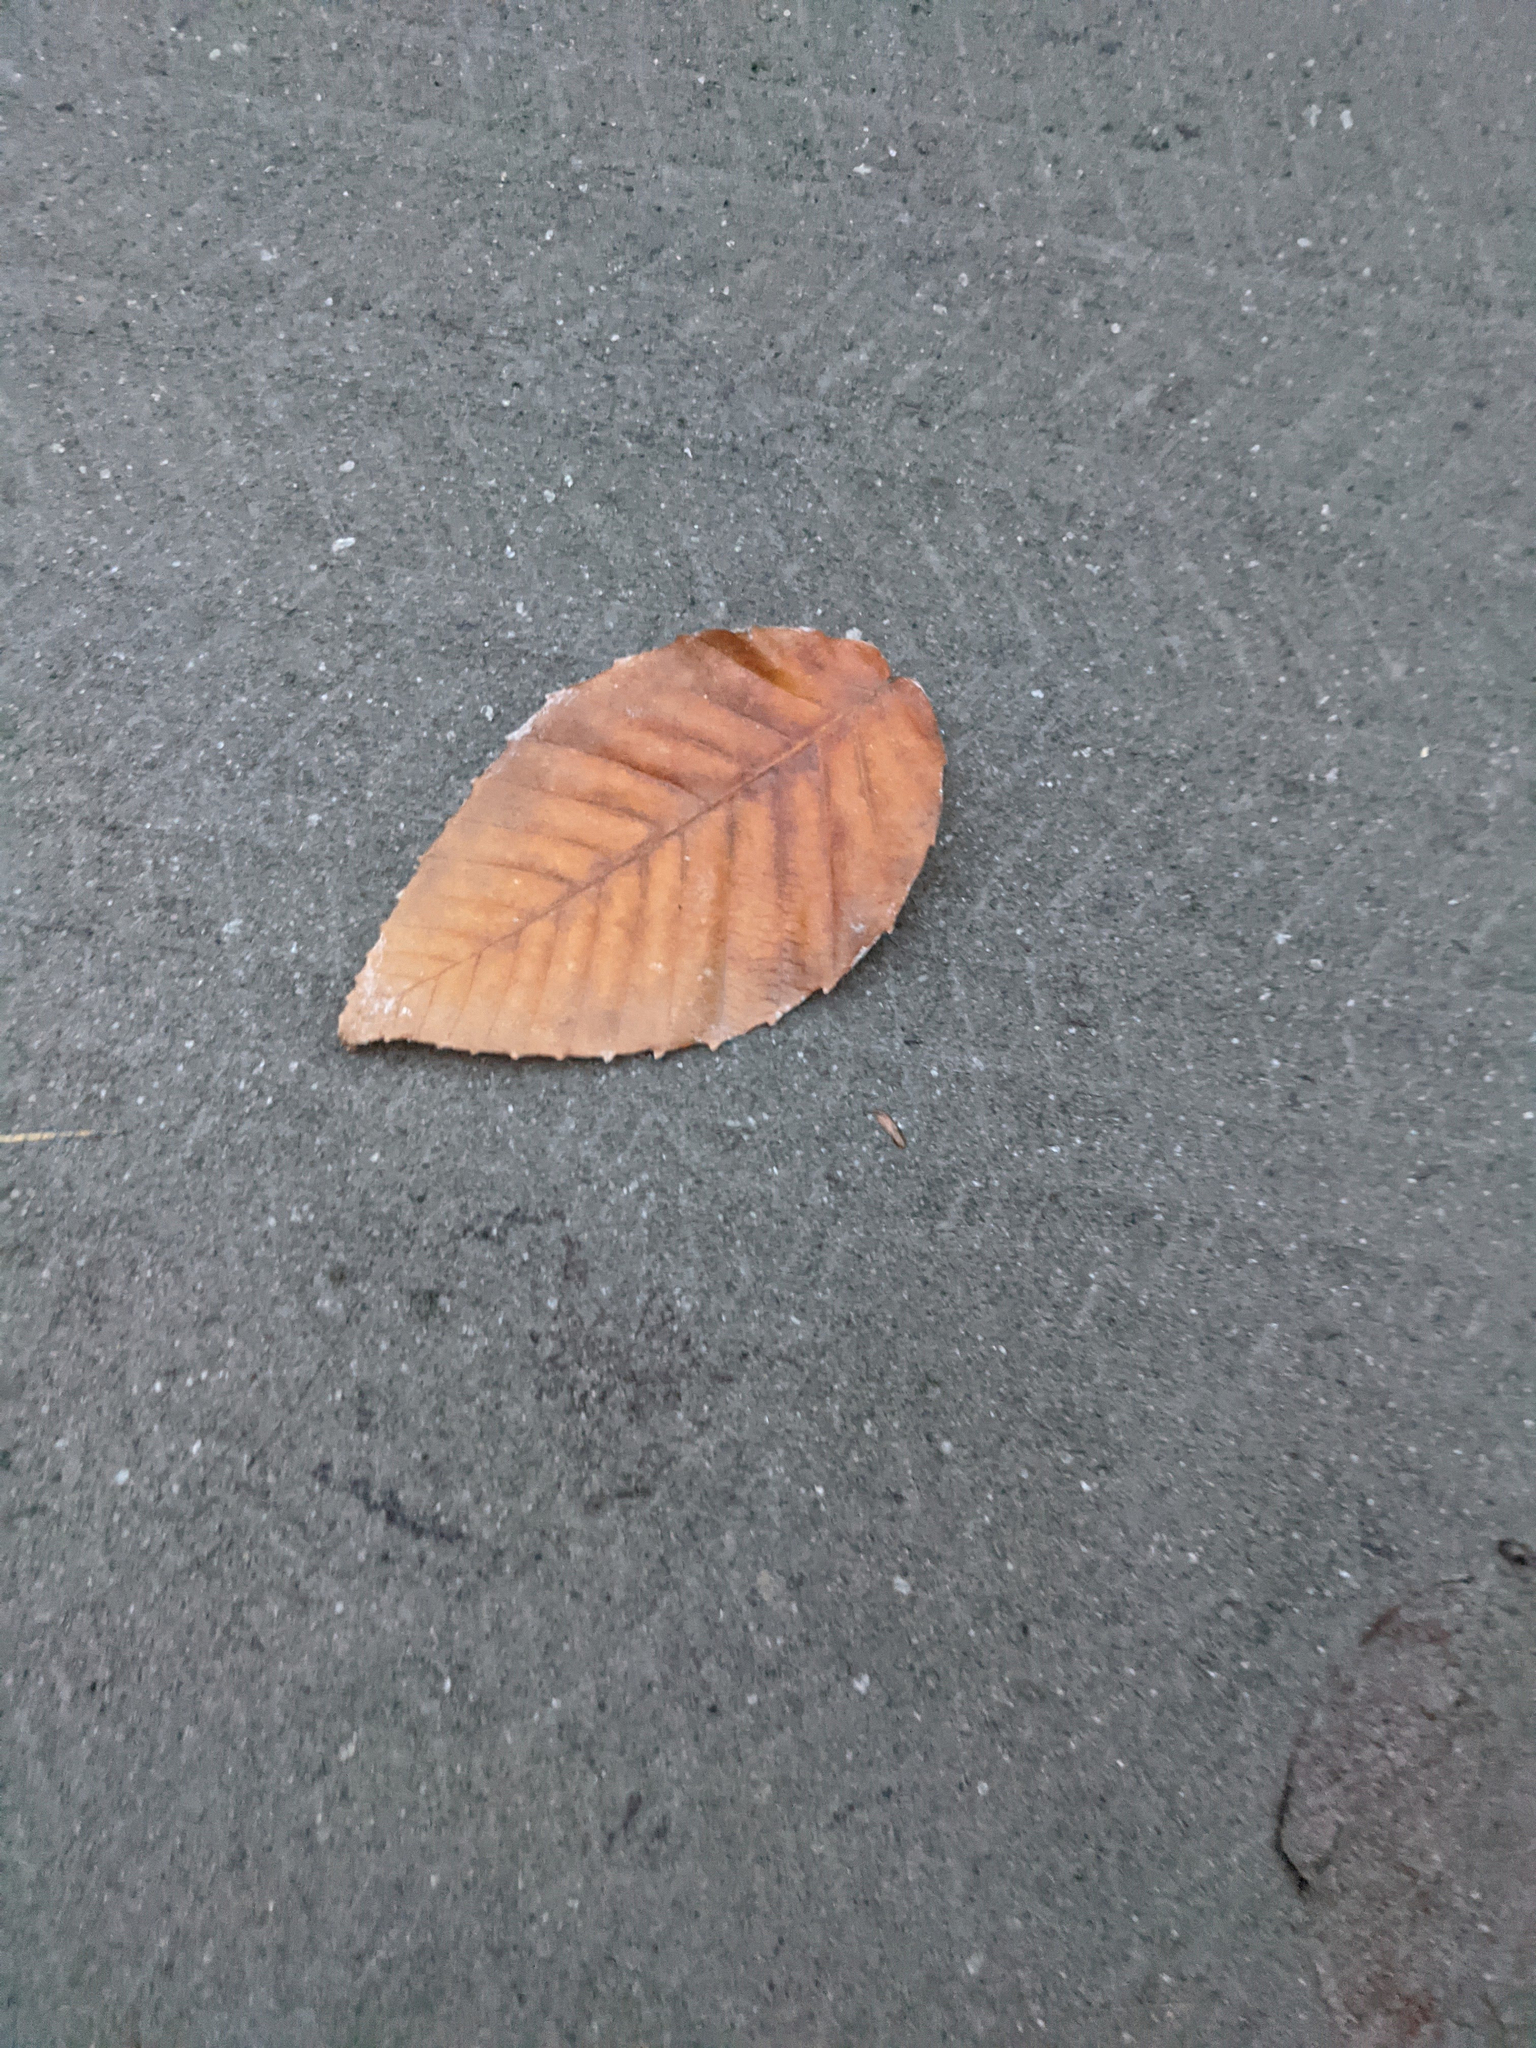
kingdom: Plantae
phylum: Tracheophyta
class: Magnoliopsida
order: Fagales
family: Fagaceae
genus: Fagus
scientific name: Fagus grandifolia
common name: American beech
